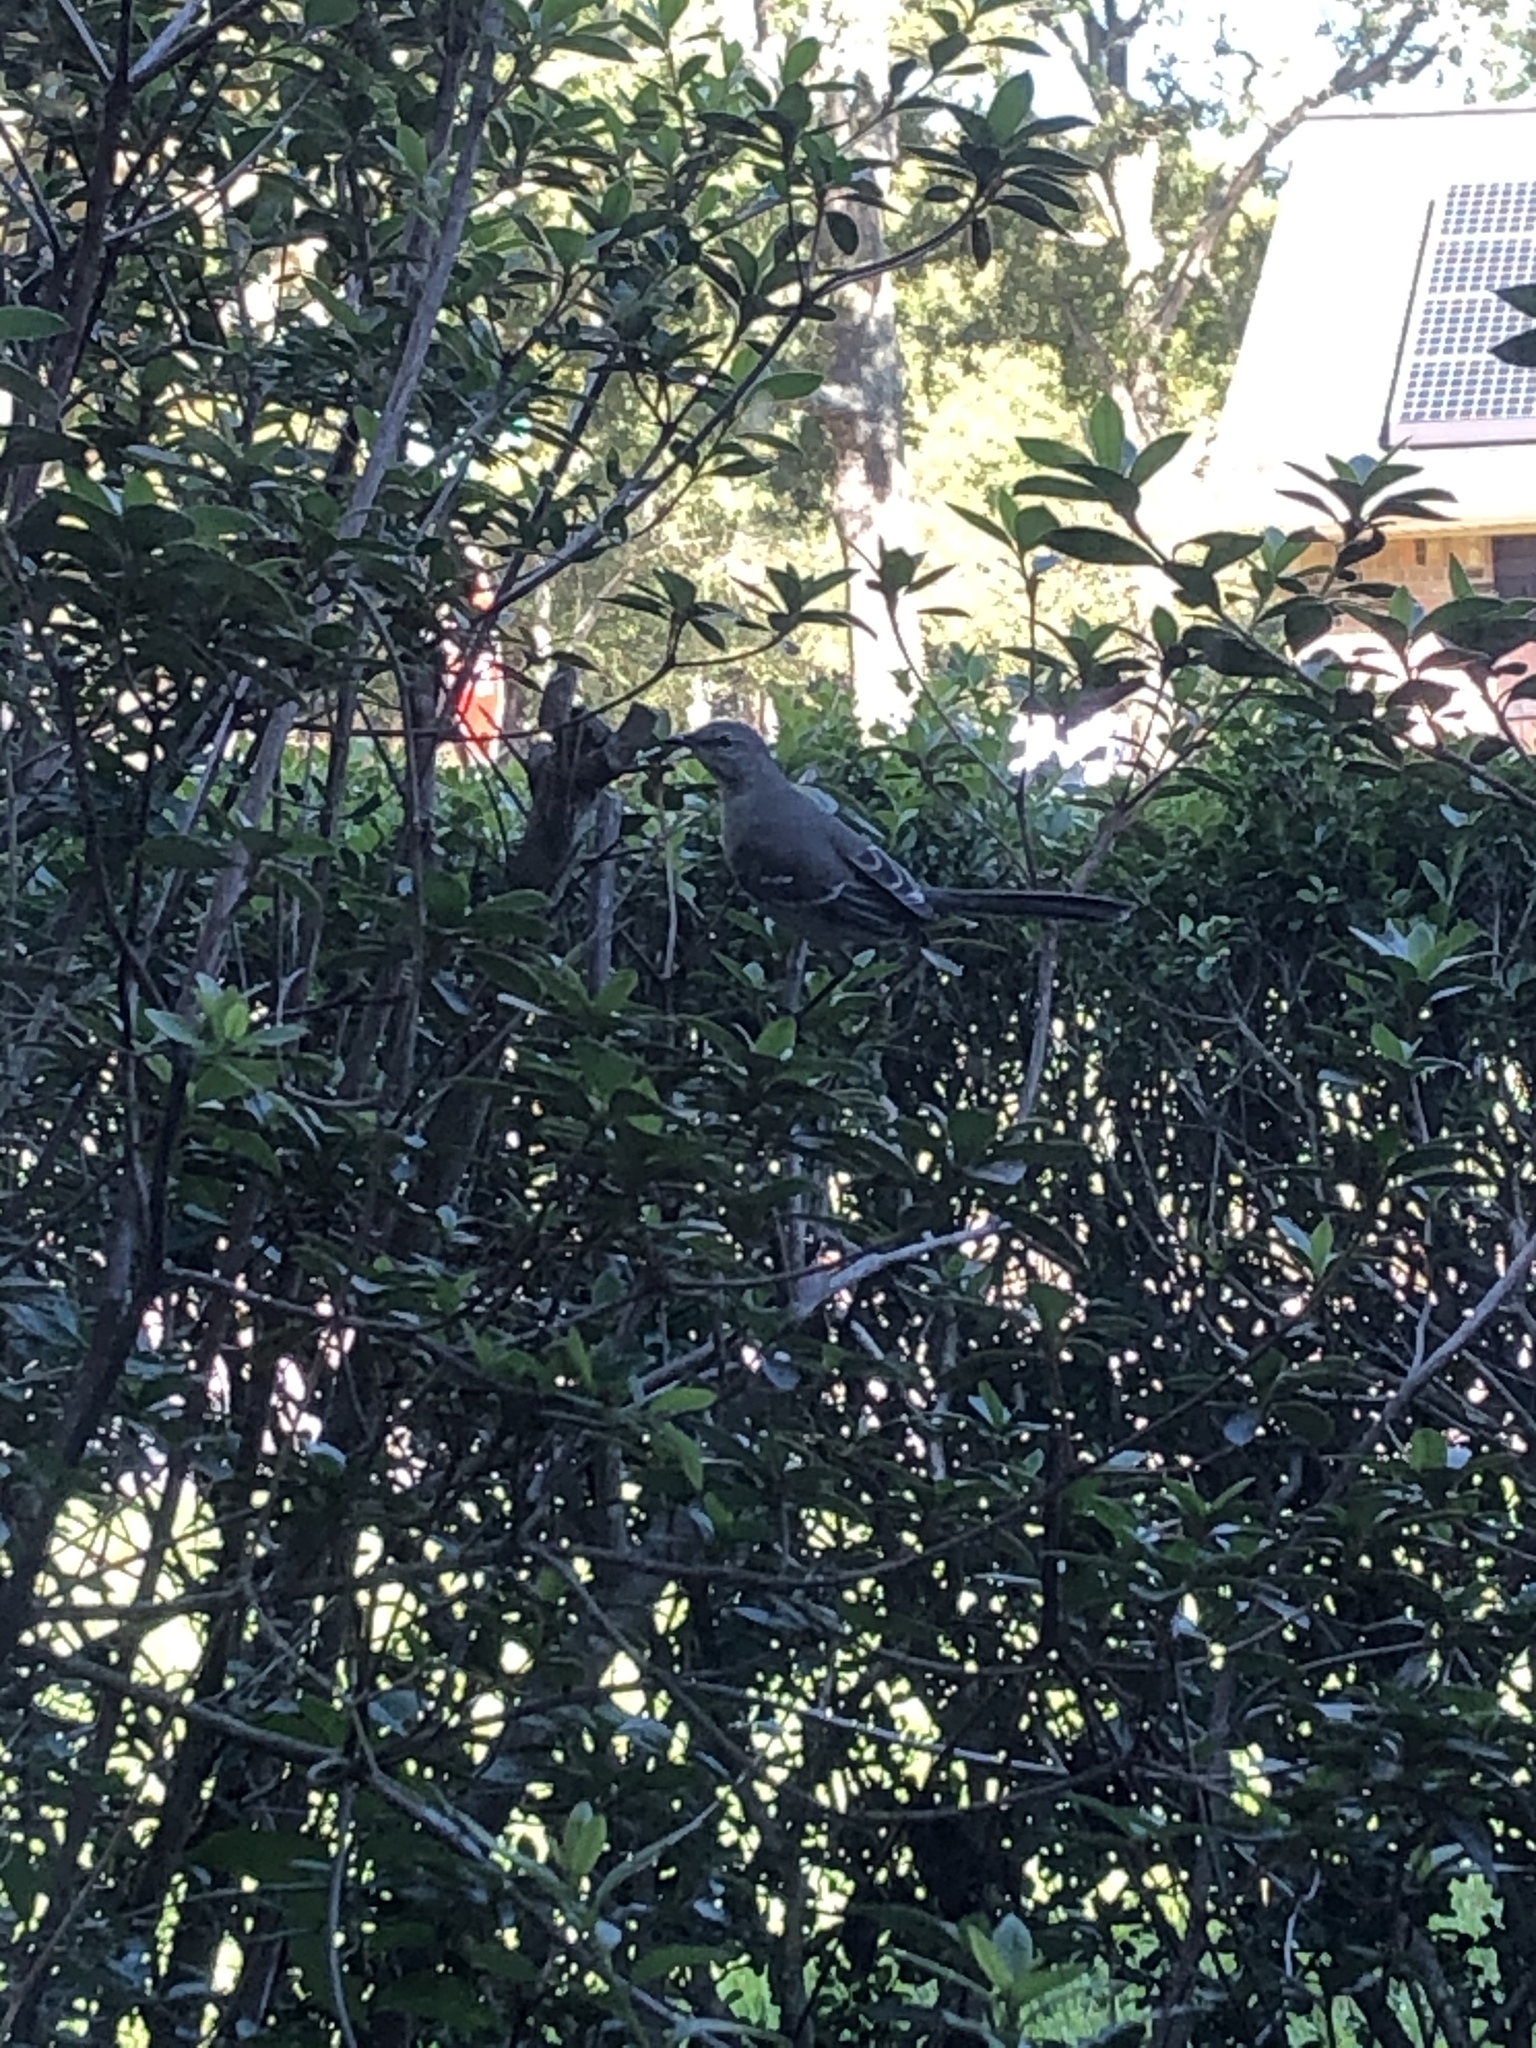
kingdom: Animalia
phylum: Chordata
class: Aves
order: Passeriformes
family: Mimidae
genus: Mimus
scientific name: Mimus polyglottos
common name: Northern mockingbird
